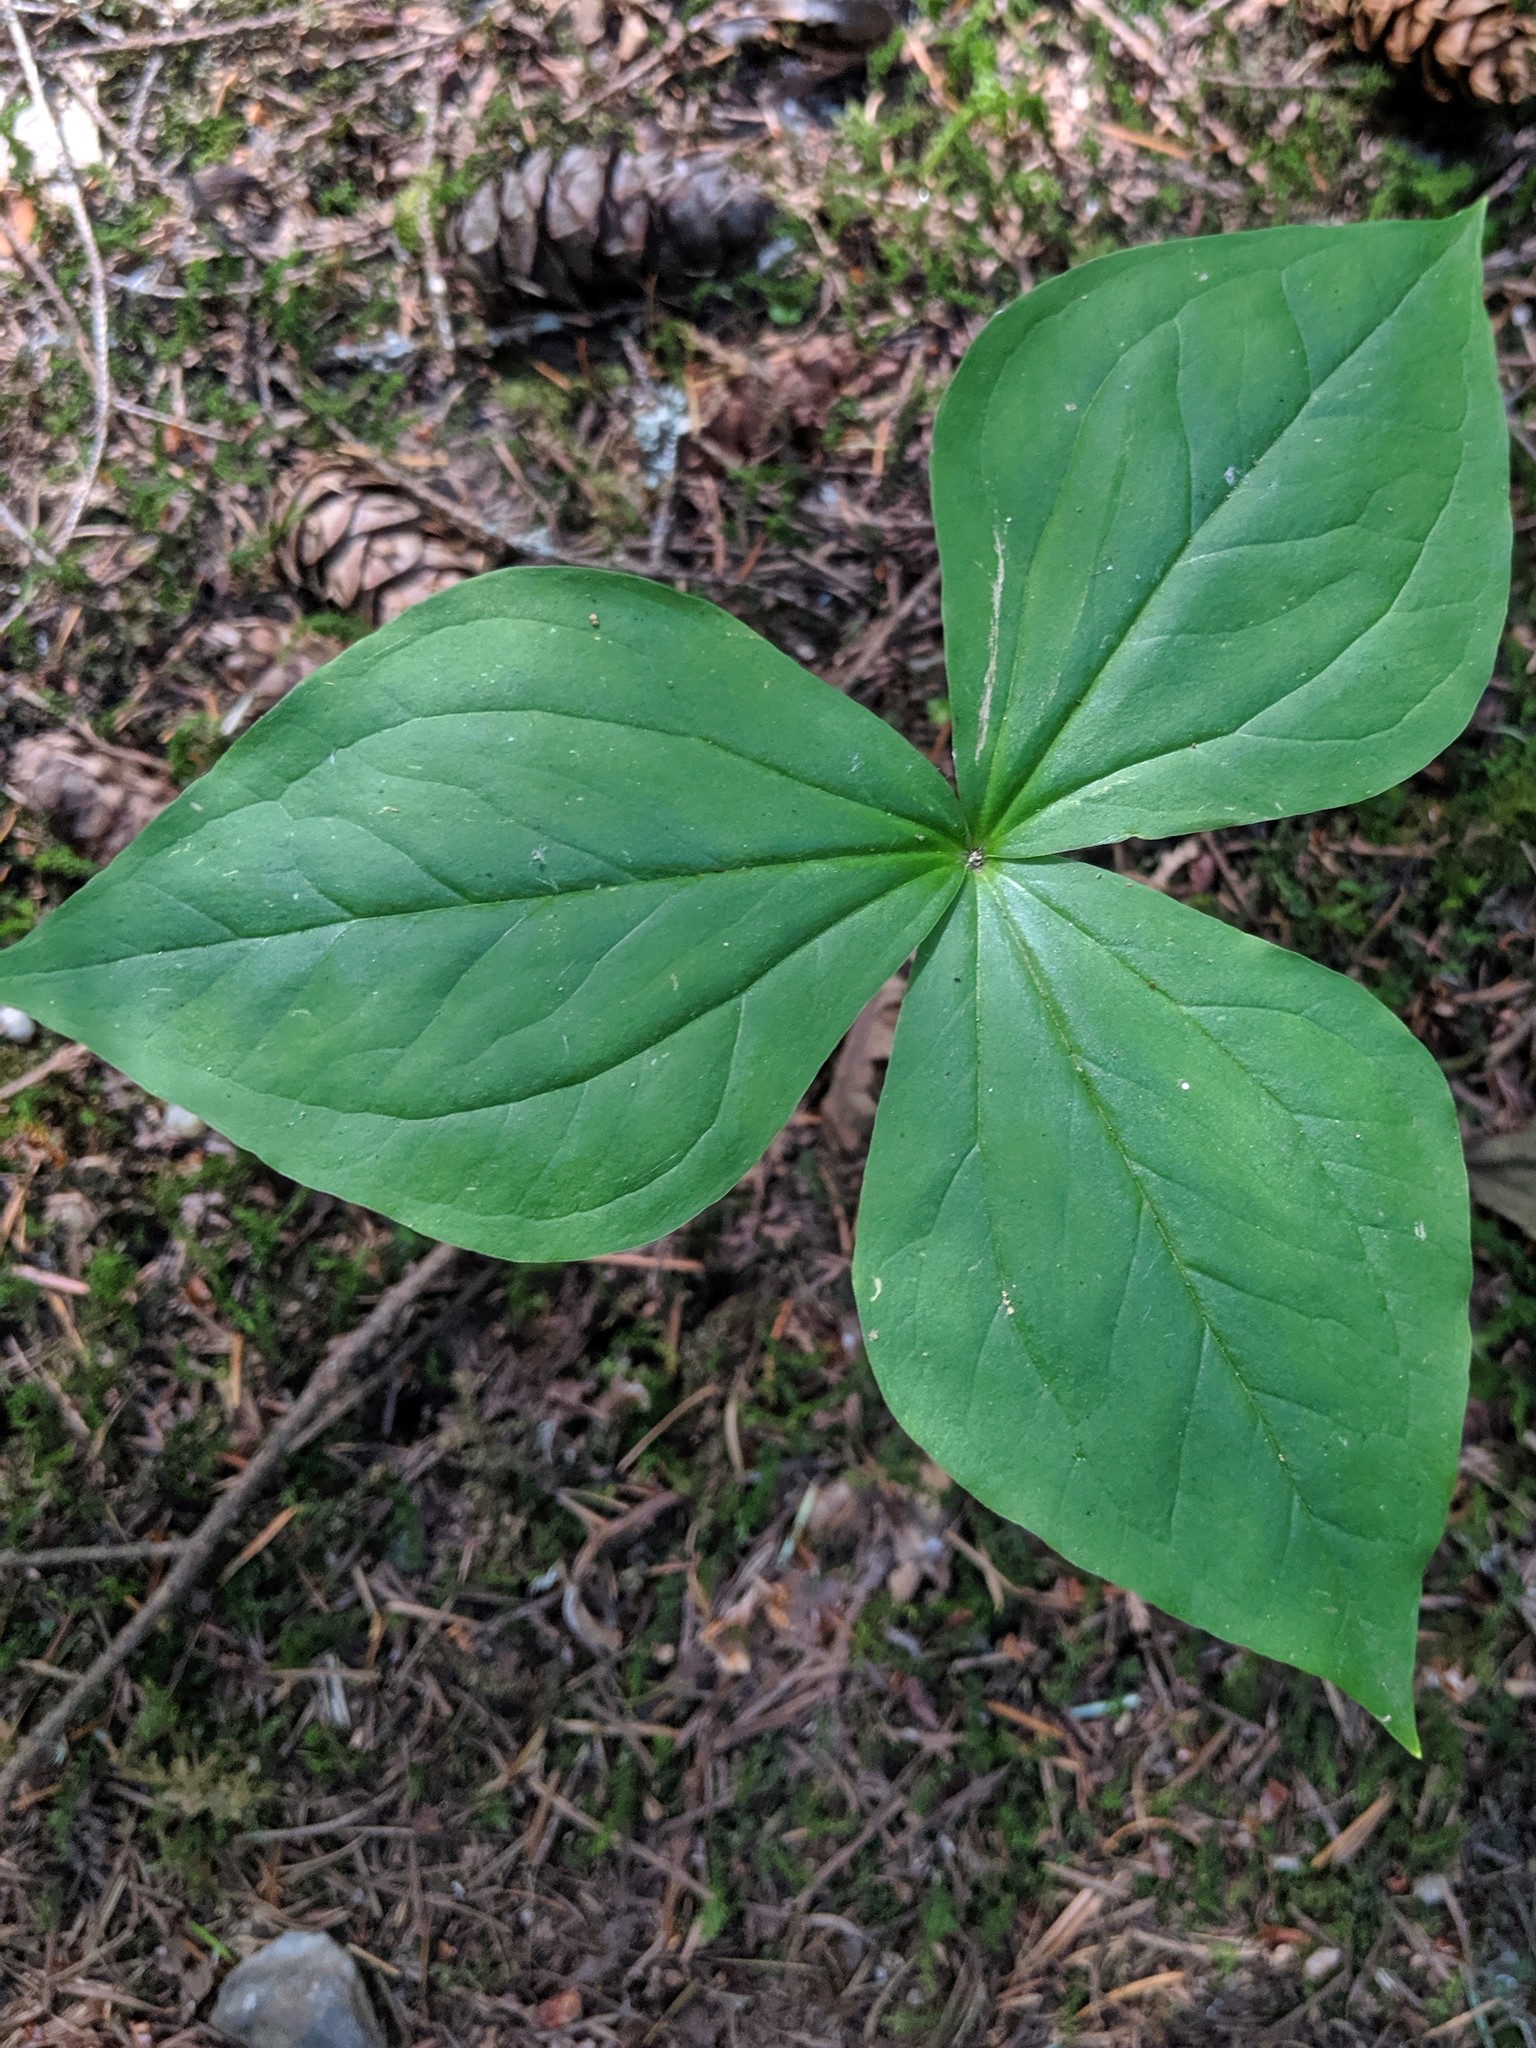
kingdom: Plantae
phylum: Tracheophyta
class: Liliopsida
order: Liliales
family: Melanthiaceae
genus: Trillium
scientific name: Trillium ovatum
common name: Pacific trillium
